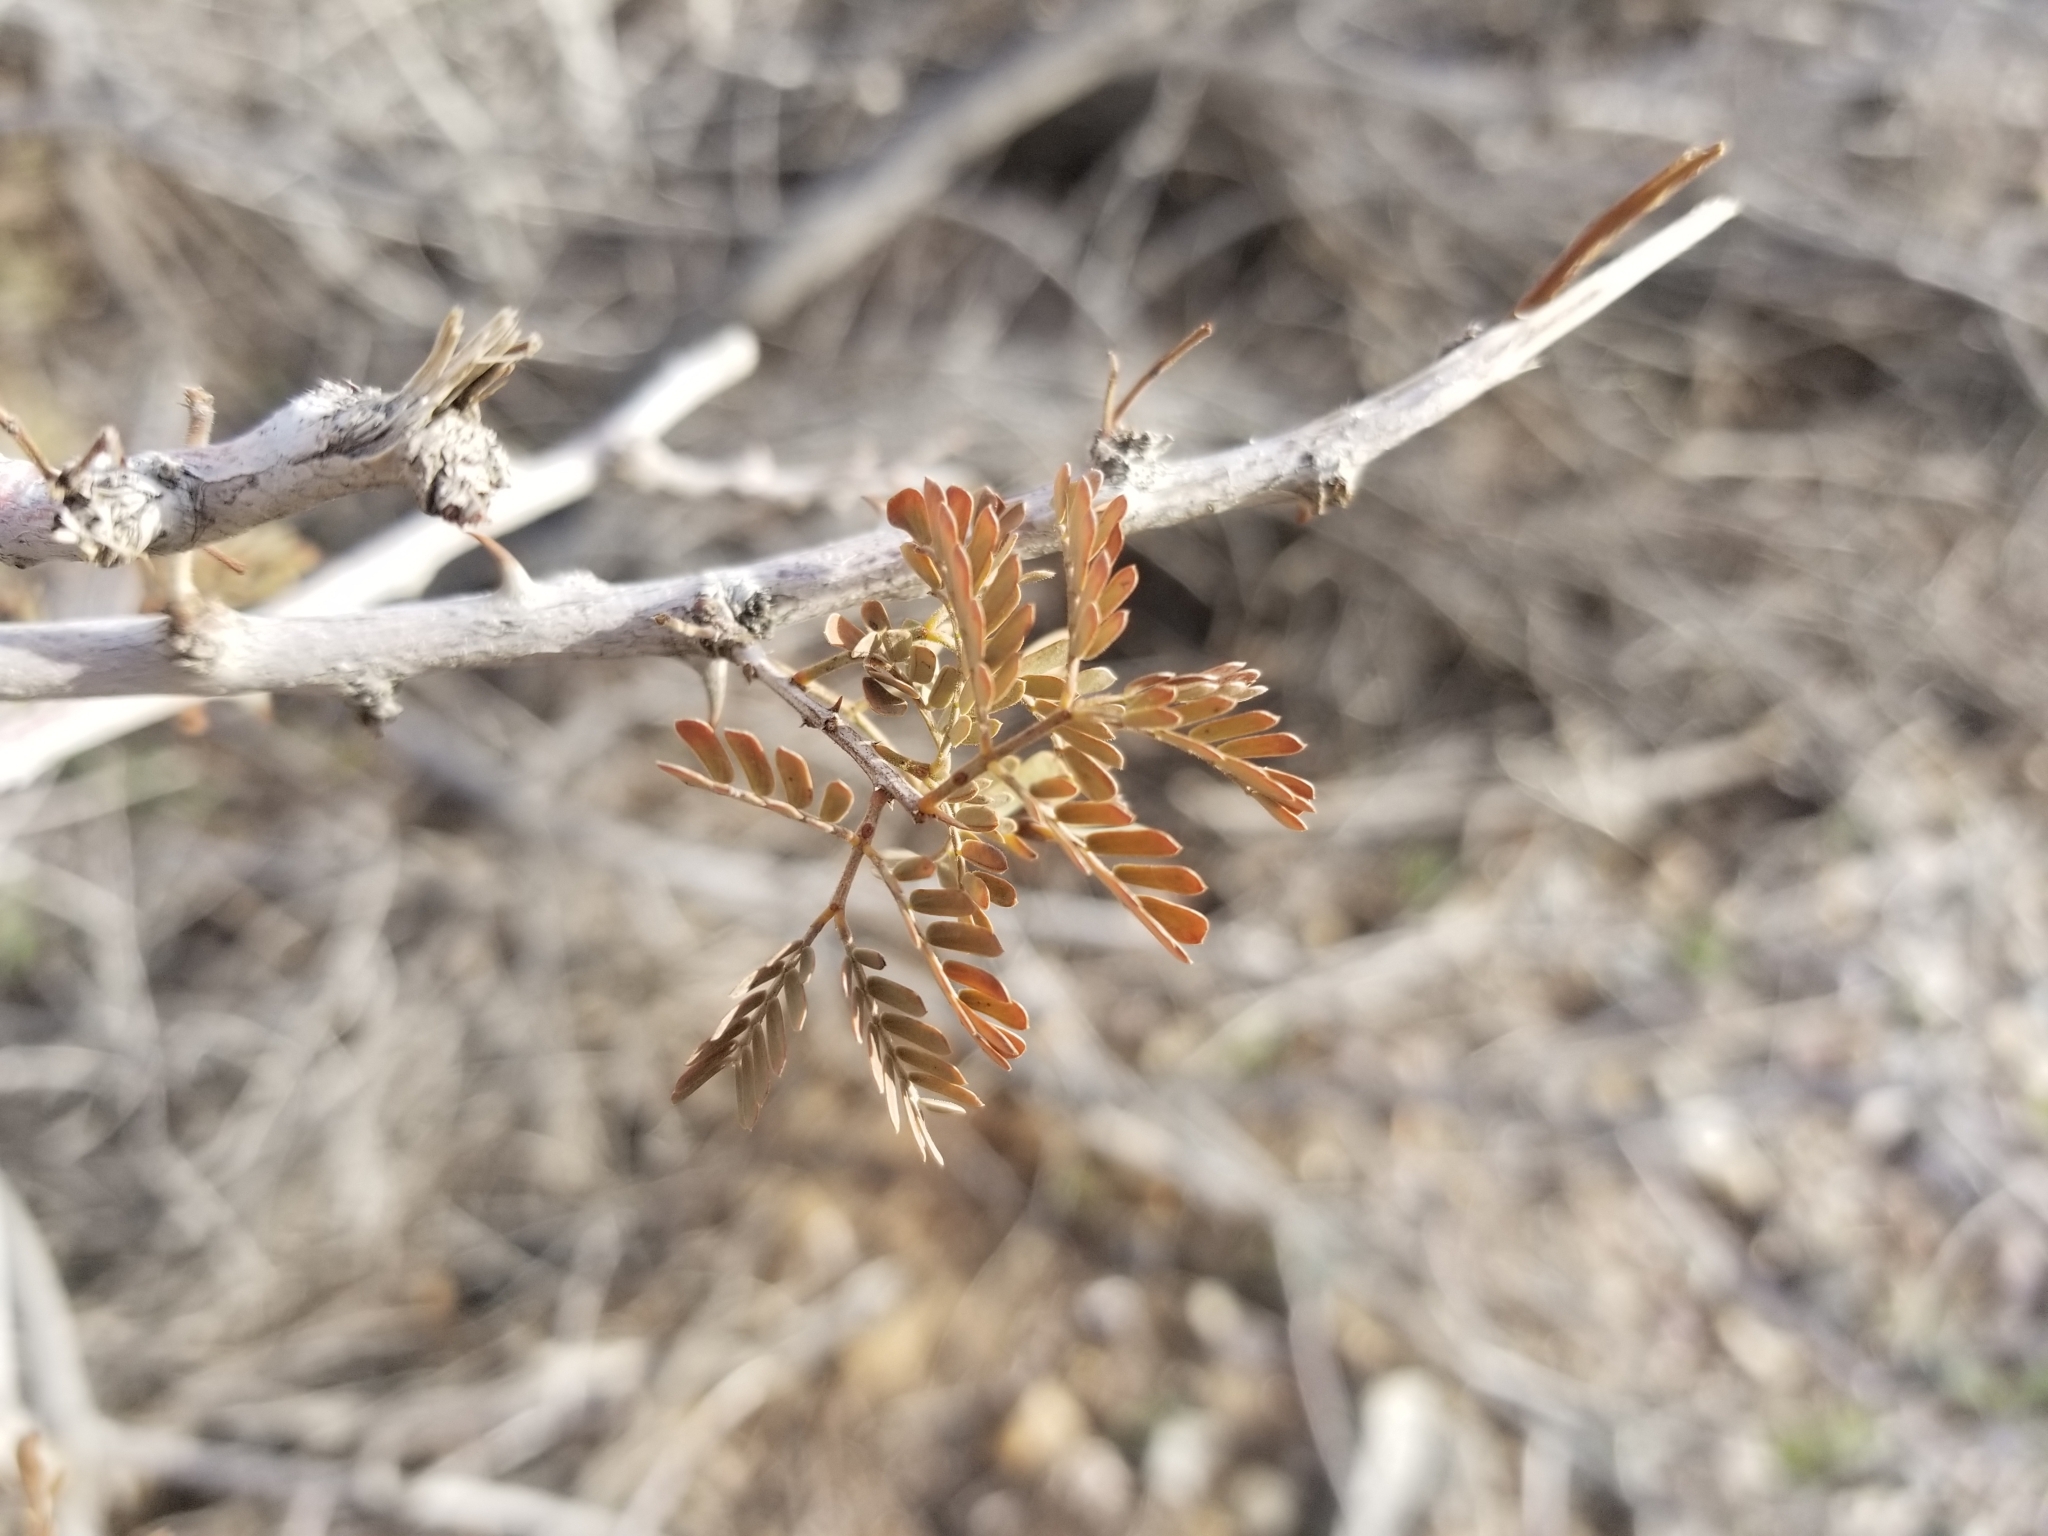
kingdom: Plantae
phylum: Tracheophyta
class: Magnoliopsida
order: Fabales
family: Fabaceae
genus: Senegalia
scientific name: Senegalia greggii
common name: Texas-mimosa
